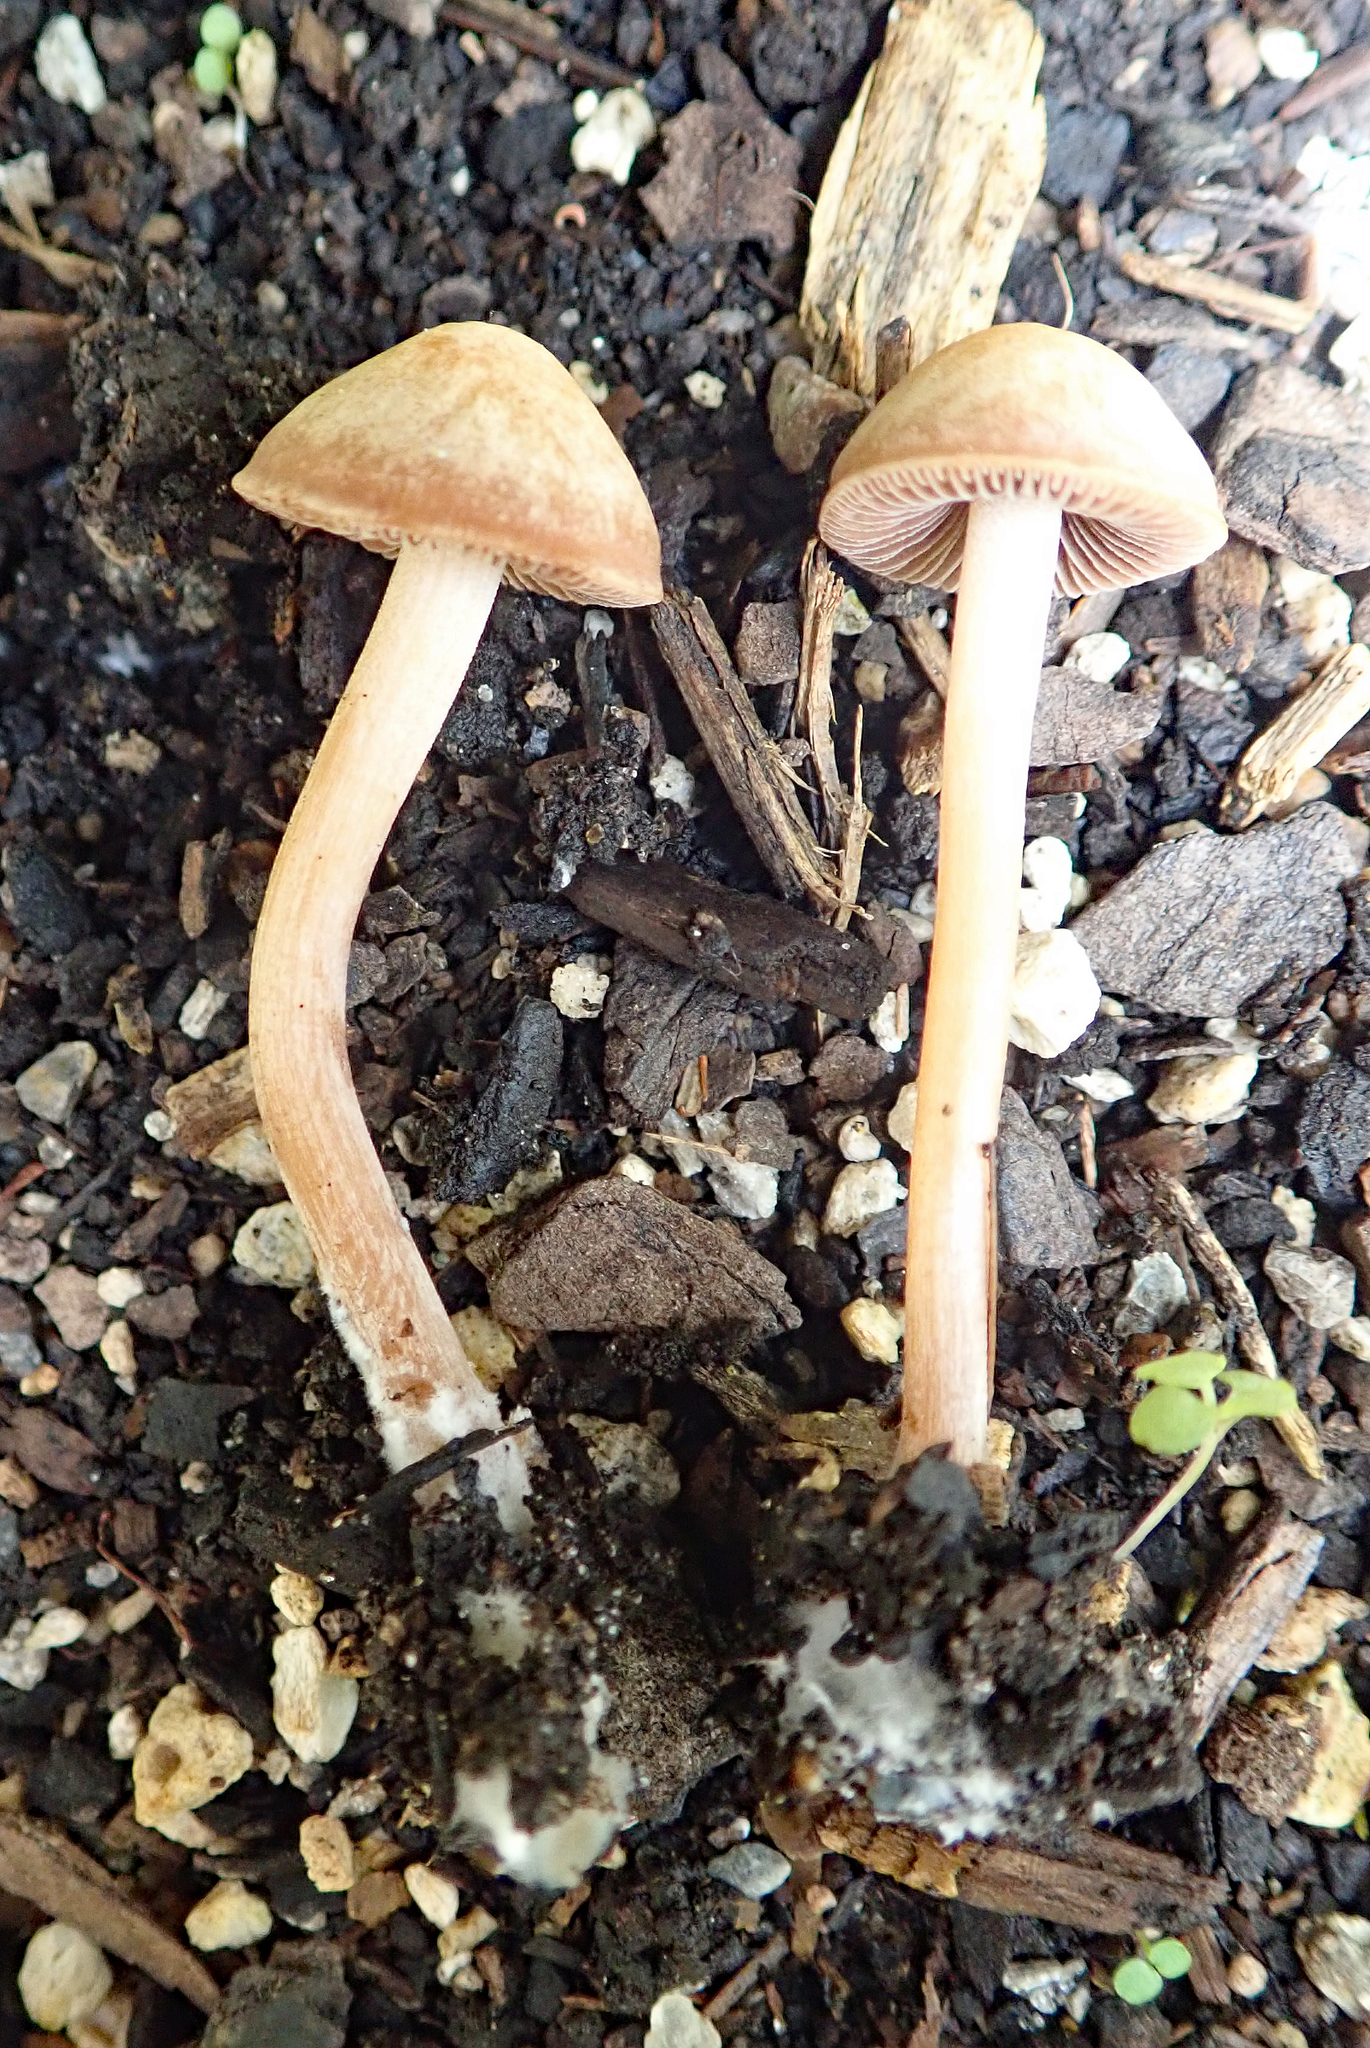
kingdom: Fungi
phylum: Basidiomycota
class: Agaricomycetes
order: Agaricales
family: Bolbitiaceae
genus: Panaeolus
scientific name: Panaeolus cinctulus
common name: Banded mottlegill
